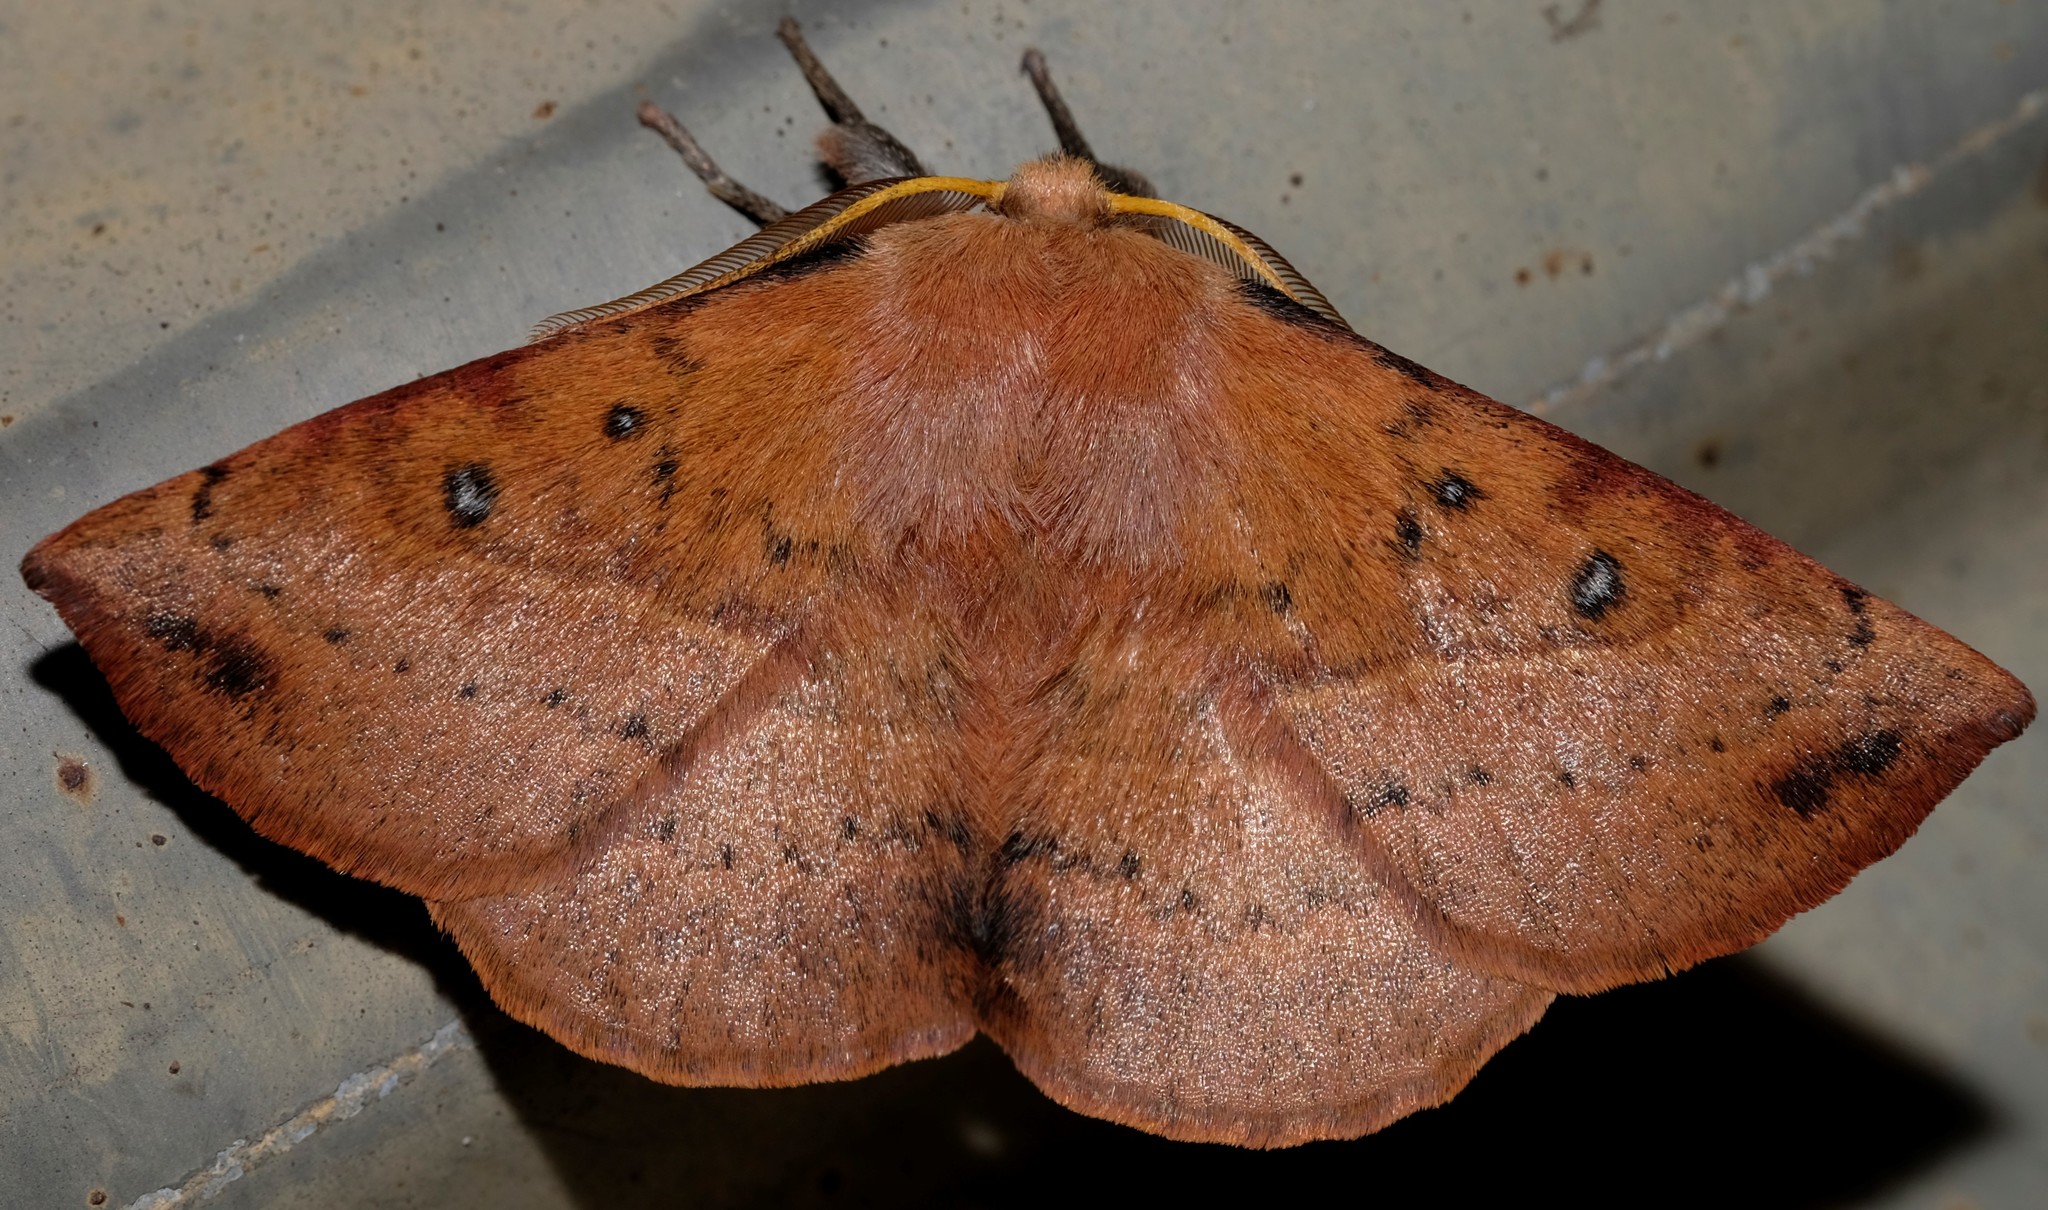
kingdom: Animalia
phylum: Arthropoda
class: Insecta
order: Lepidoptera
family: Anthelidae
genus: Anthela
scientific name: Anthela acuta
